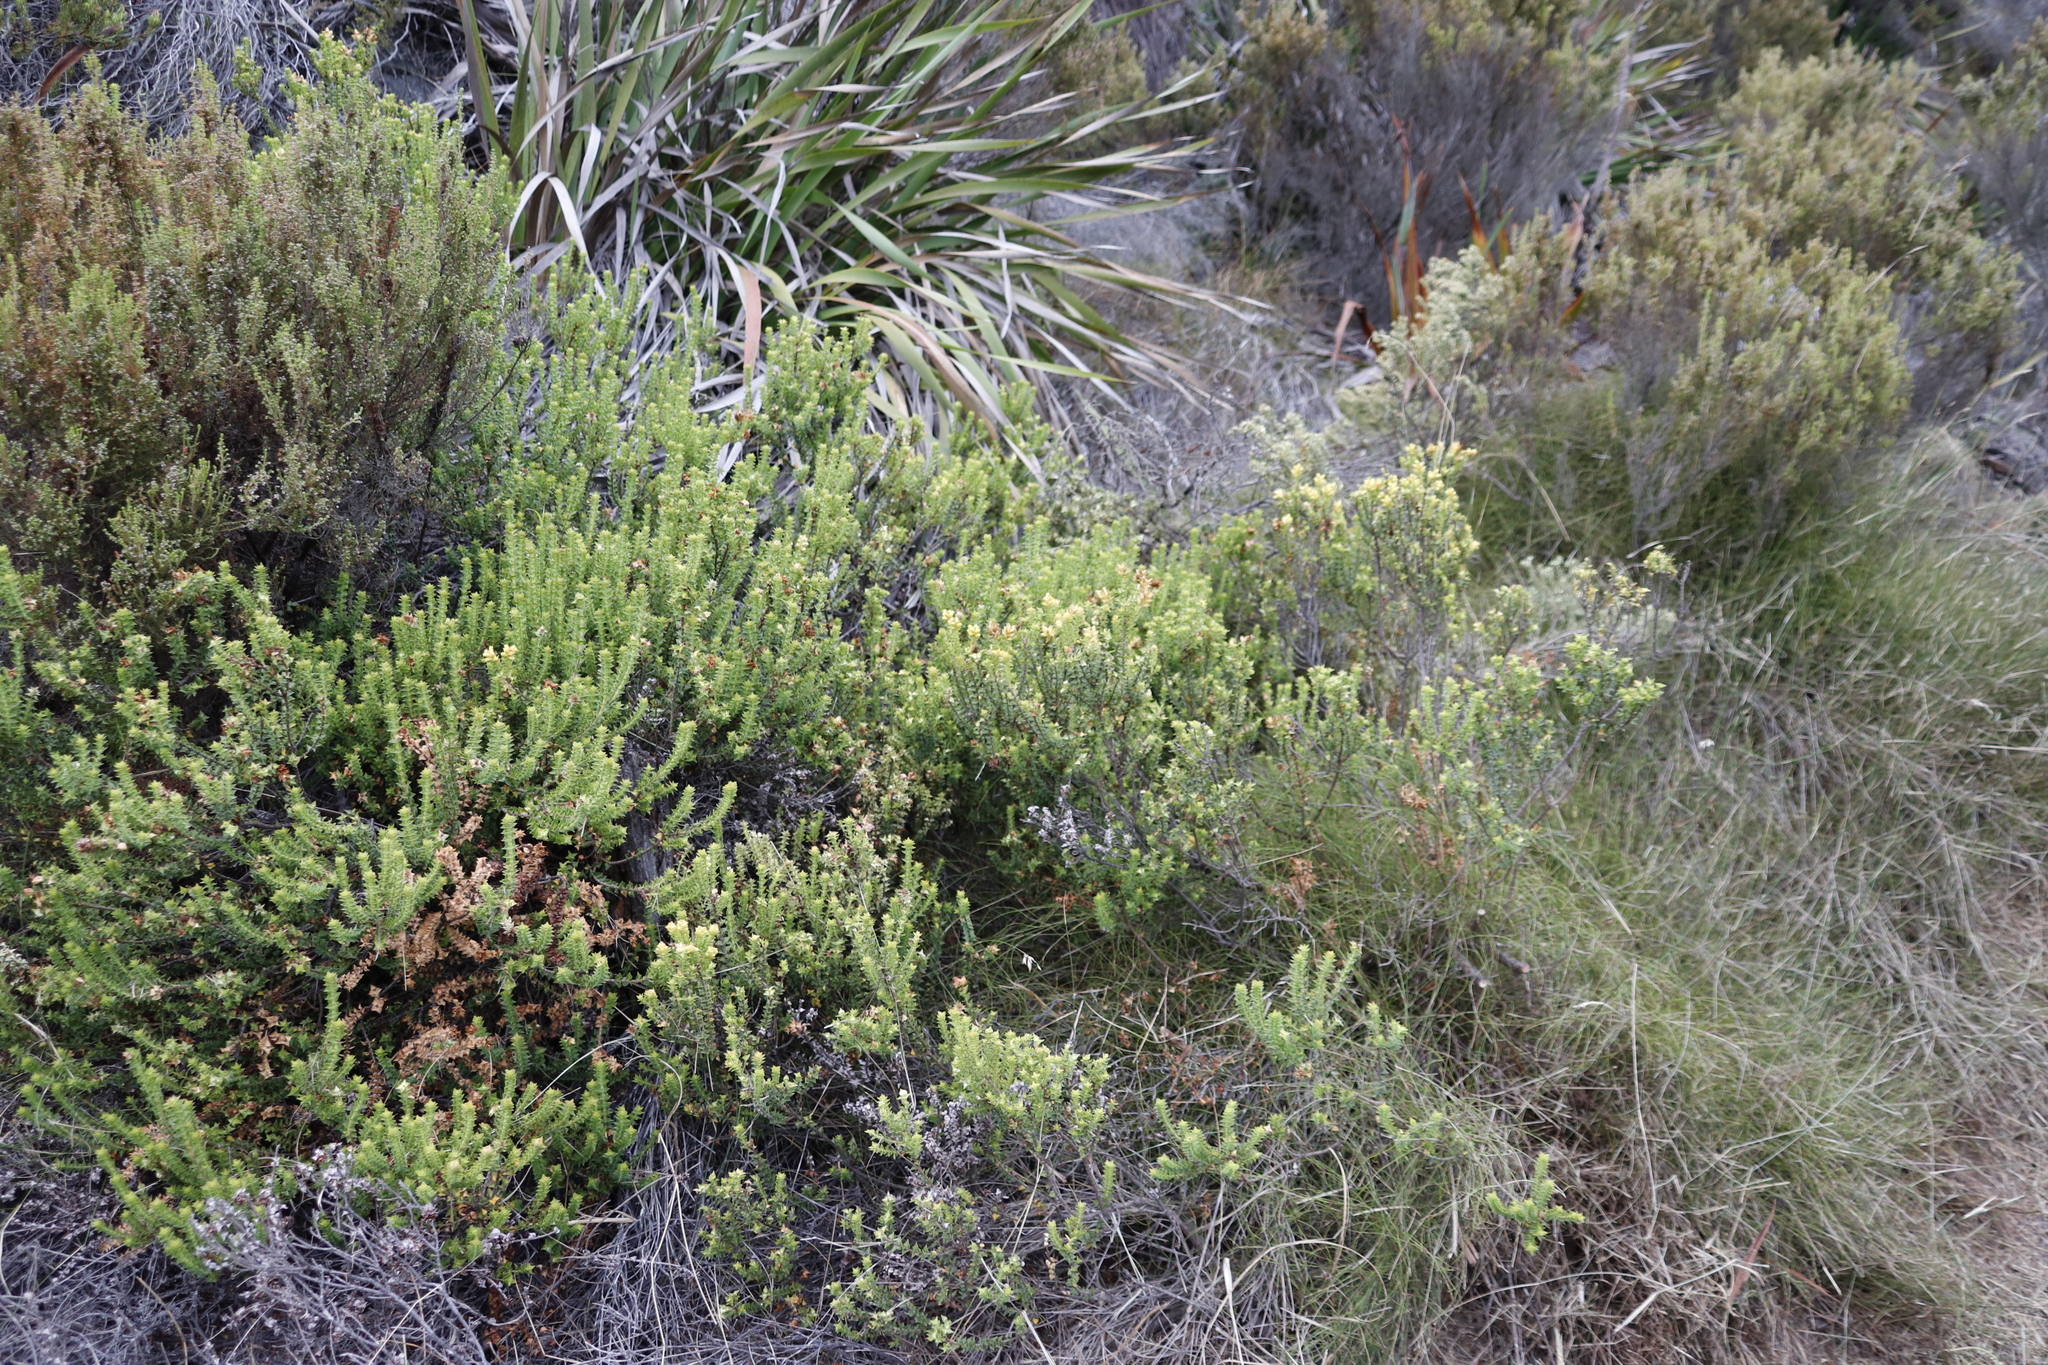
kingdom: Plantae
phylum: Tracheophyta
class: Magnoliopsida
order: Myrtales
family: Penaeaceae
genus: Penaea
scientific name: Penaea mucronata
